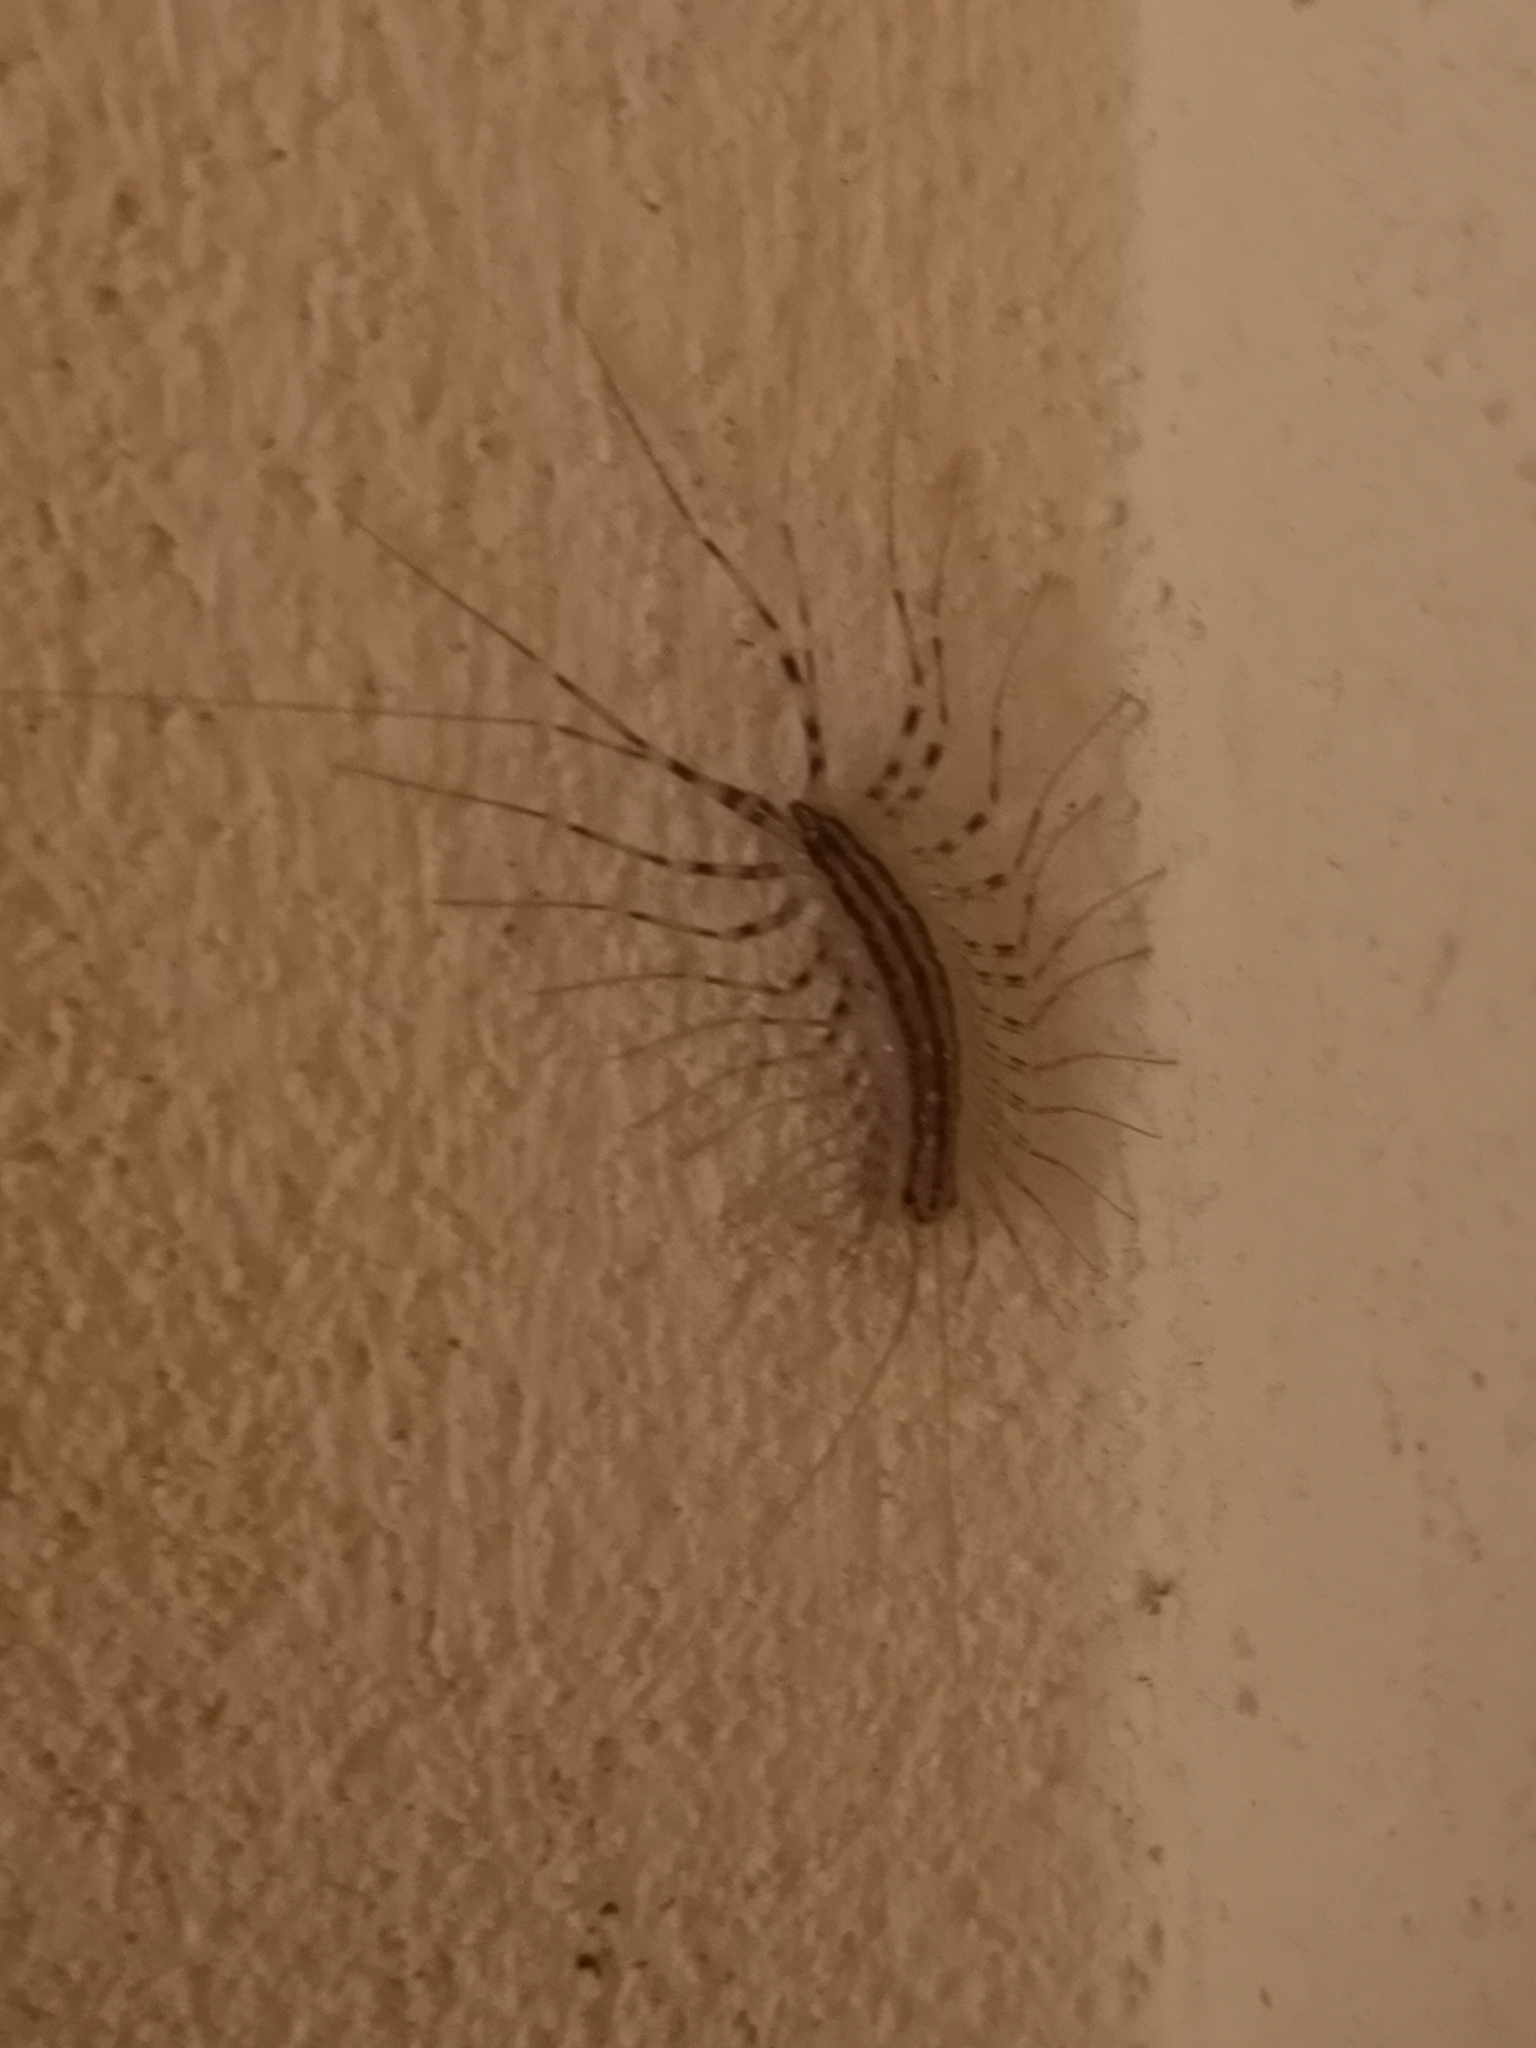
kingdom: Animalia
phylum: Arthropoda
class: Chilopoda
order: Scutigeromorpha
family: Scutigeridae
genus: Scutigera
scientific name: Scutigera coleoptrata
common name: House centipede
